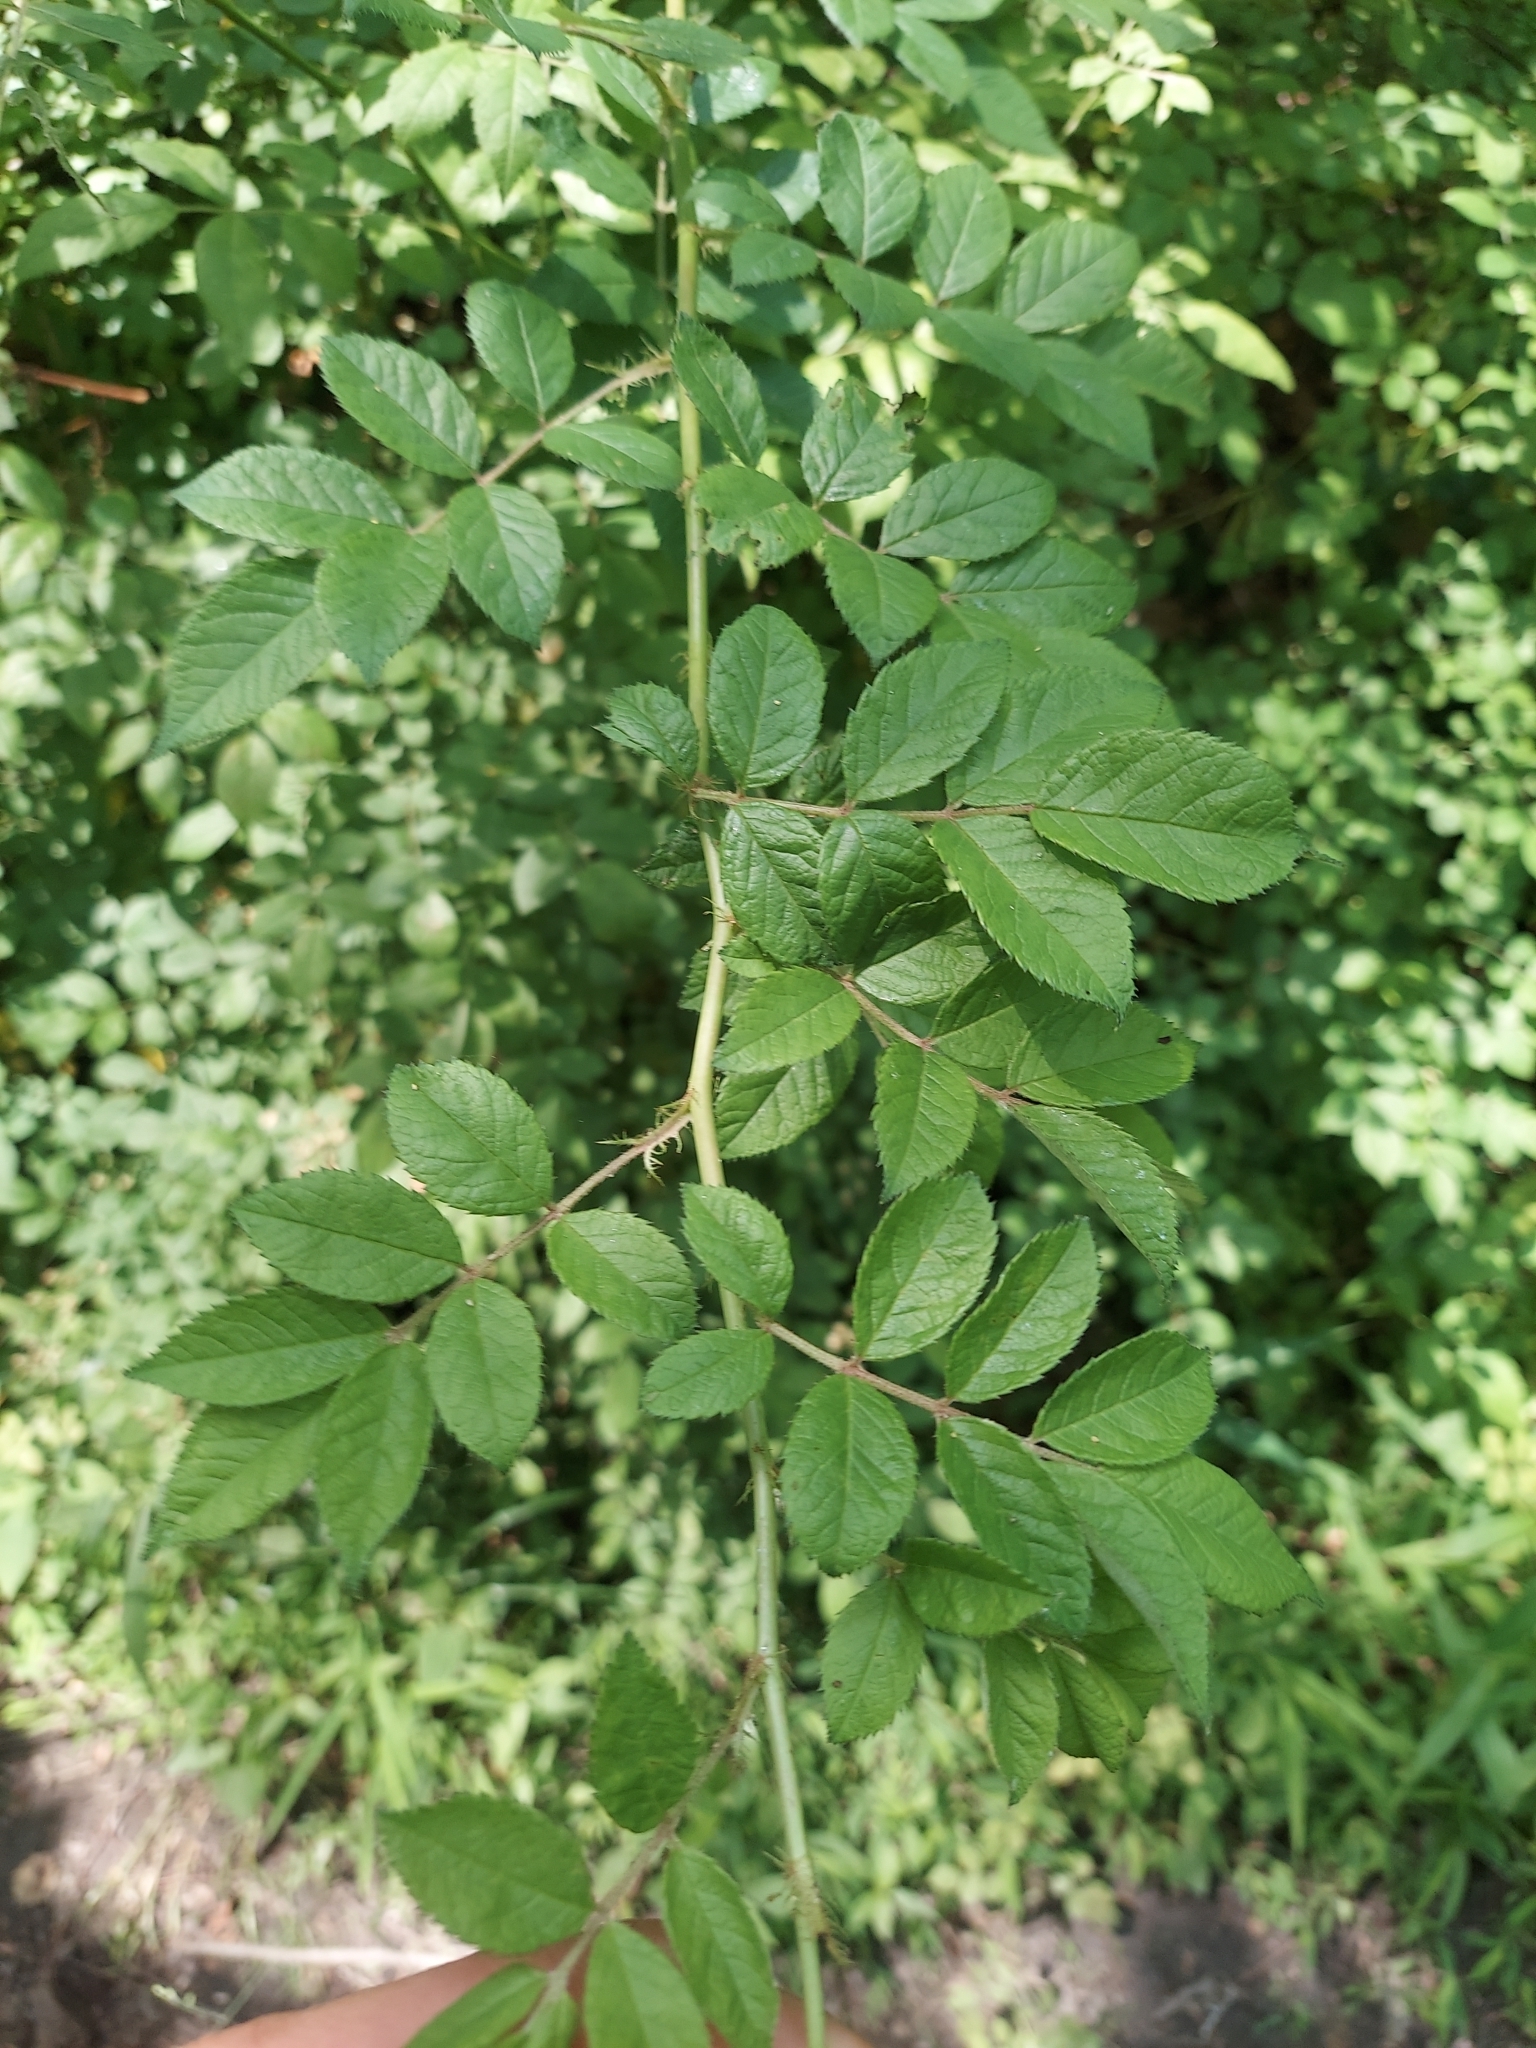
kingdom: Plantae
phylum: Tracheophyta
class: Magnoliopsida
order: Rosales
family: Rosaceae
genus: Rosa
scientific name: Rosa multiflora
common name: Multiflora rose
